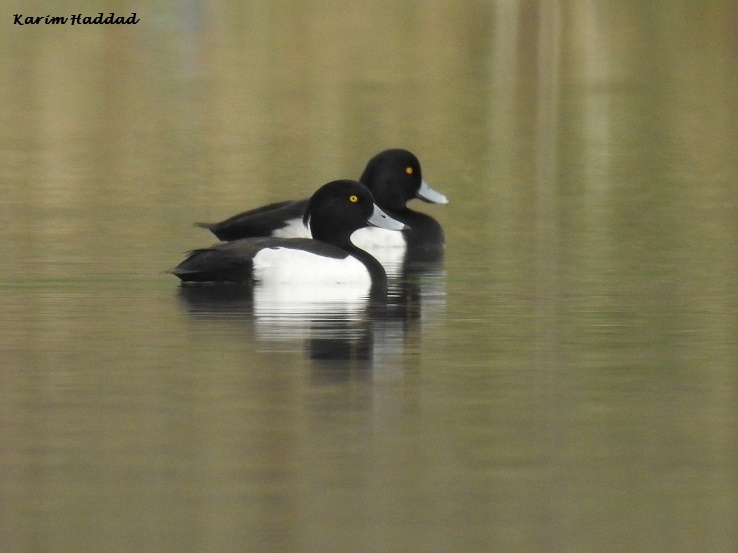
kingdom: Animalia
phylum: Chordata
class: Aves
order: Anseriformes
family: Anatidae
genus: Aythya
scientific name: Aythya fuligula
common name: Tufted duck
